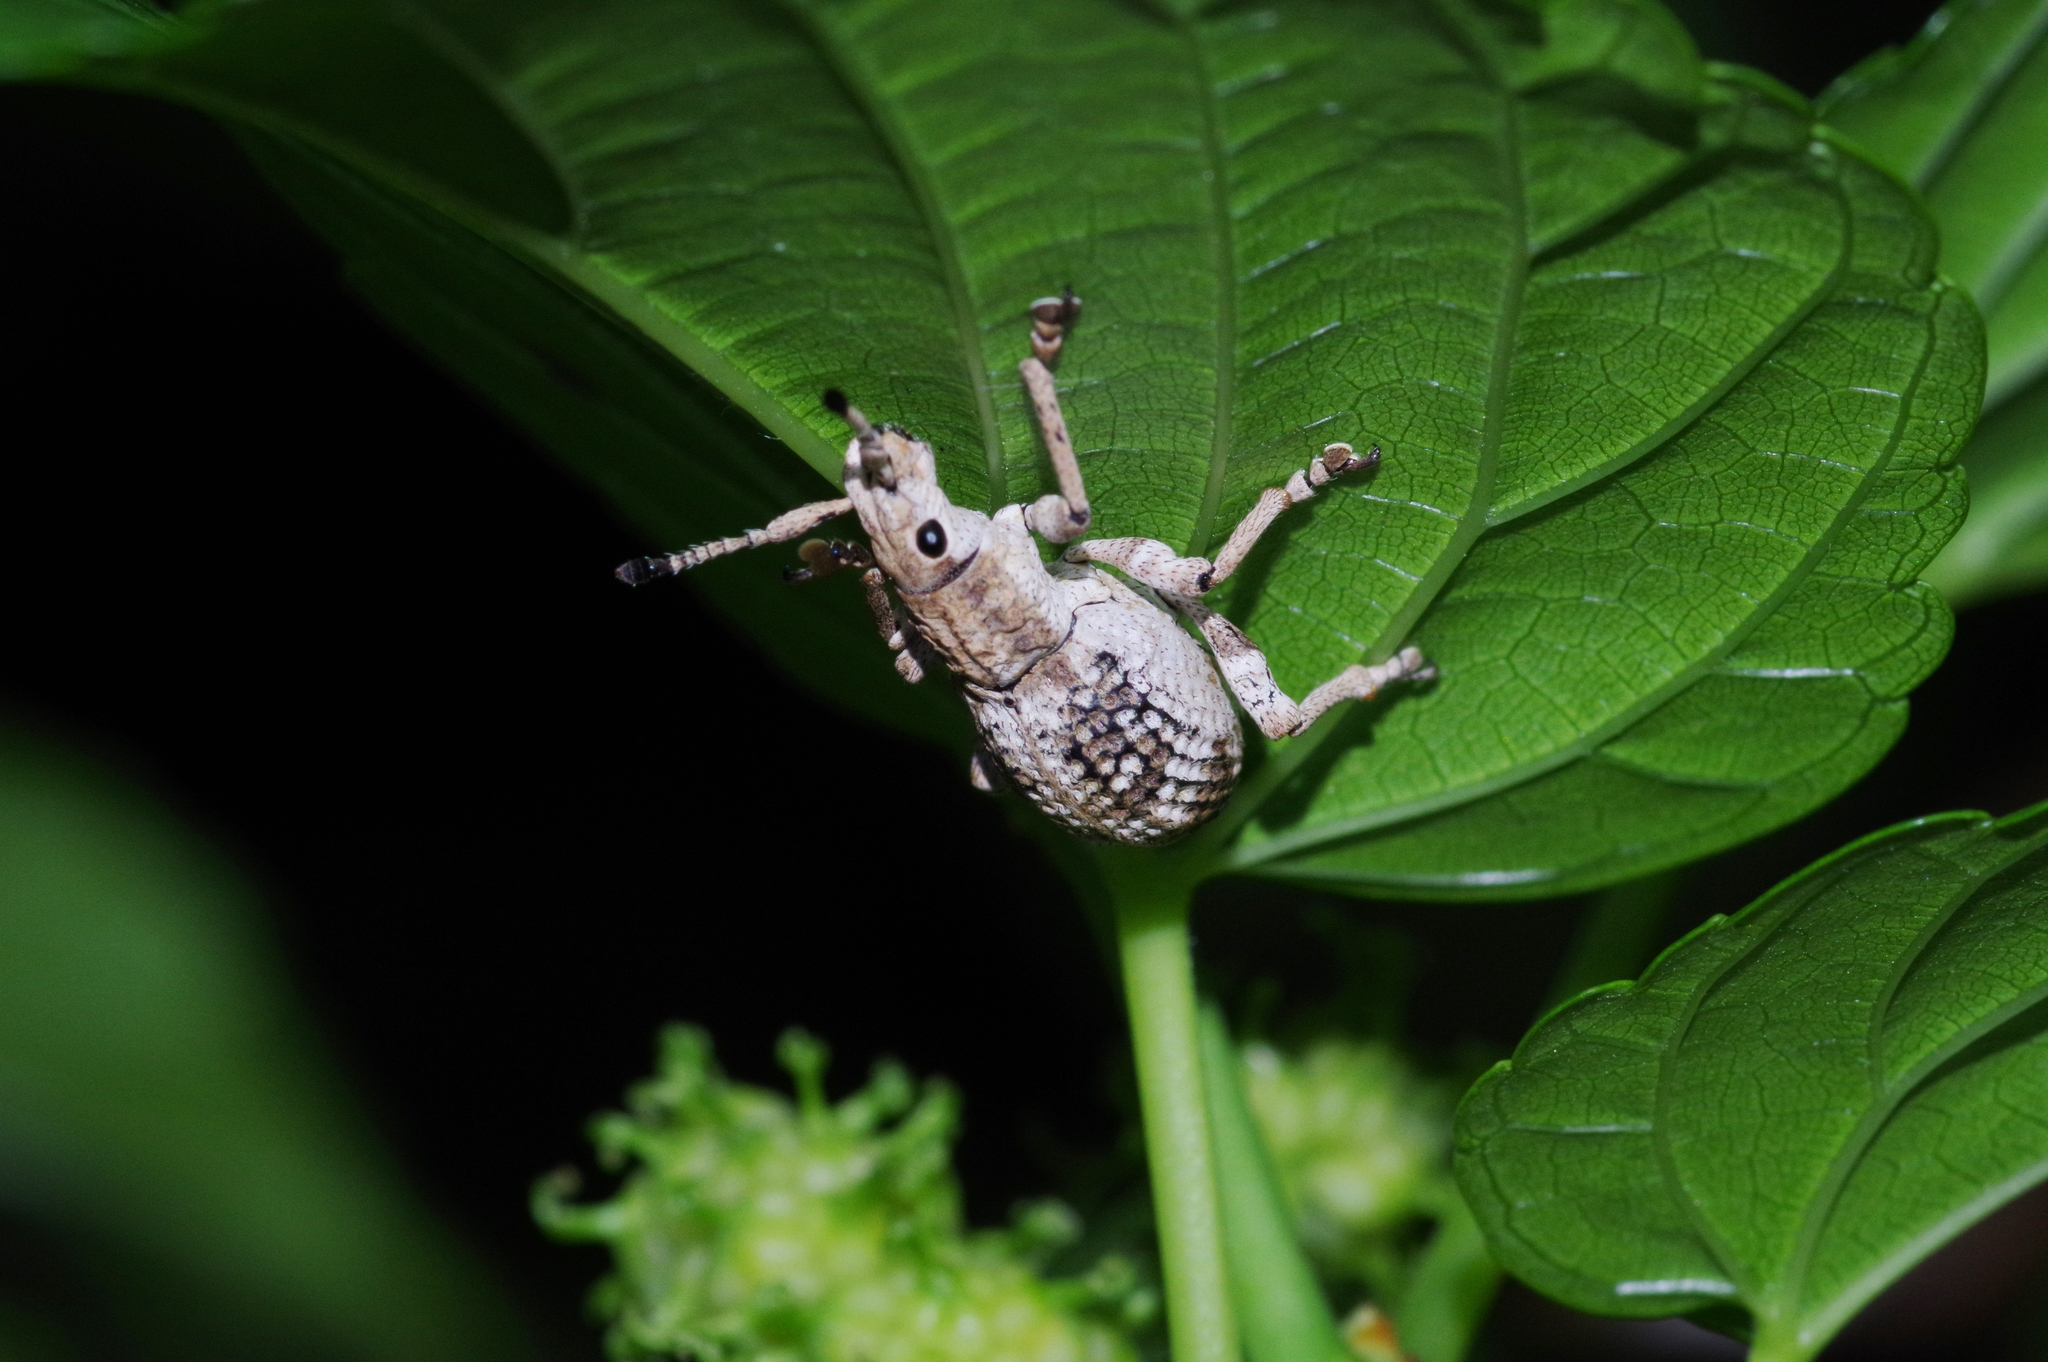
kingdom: Animalia
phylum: Arthropoda
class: Insecta
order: Coleoptera
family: Curculionidae
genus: Episomus
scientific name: Episomus mori
